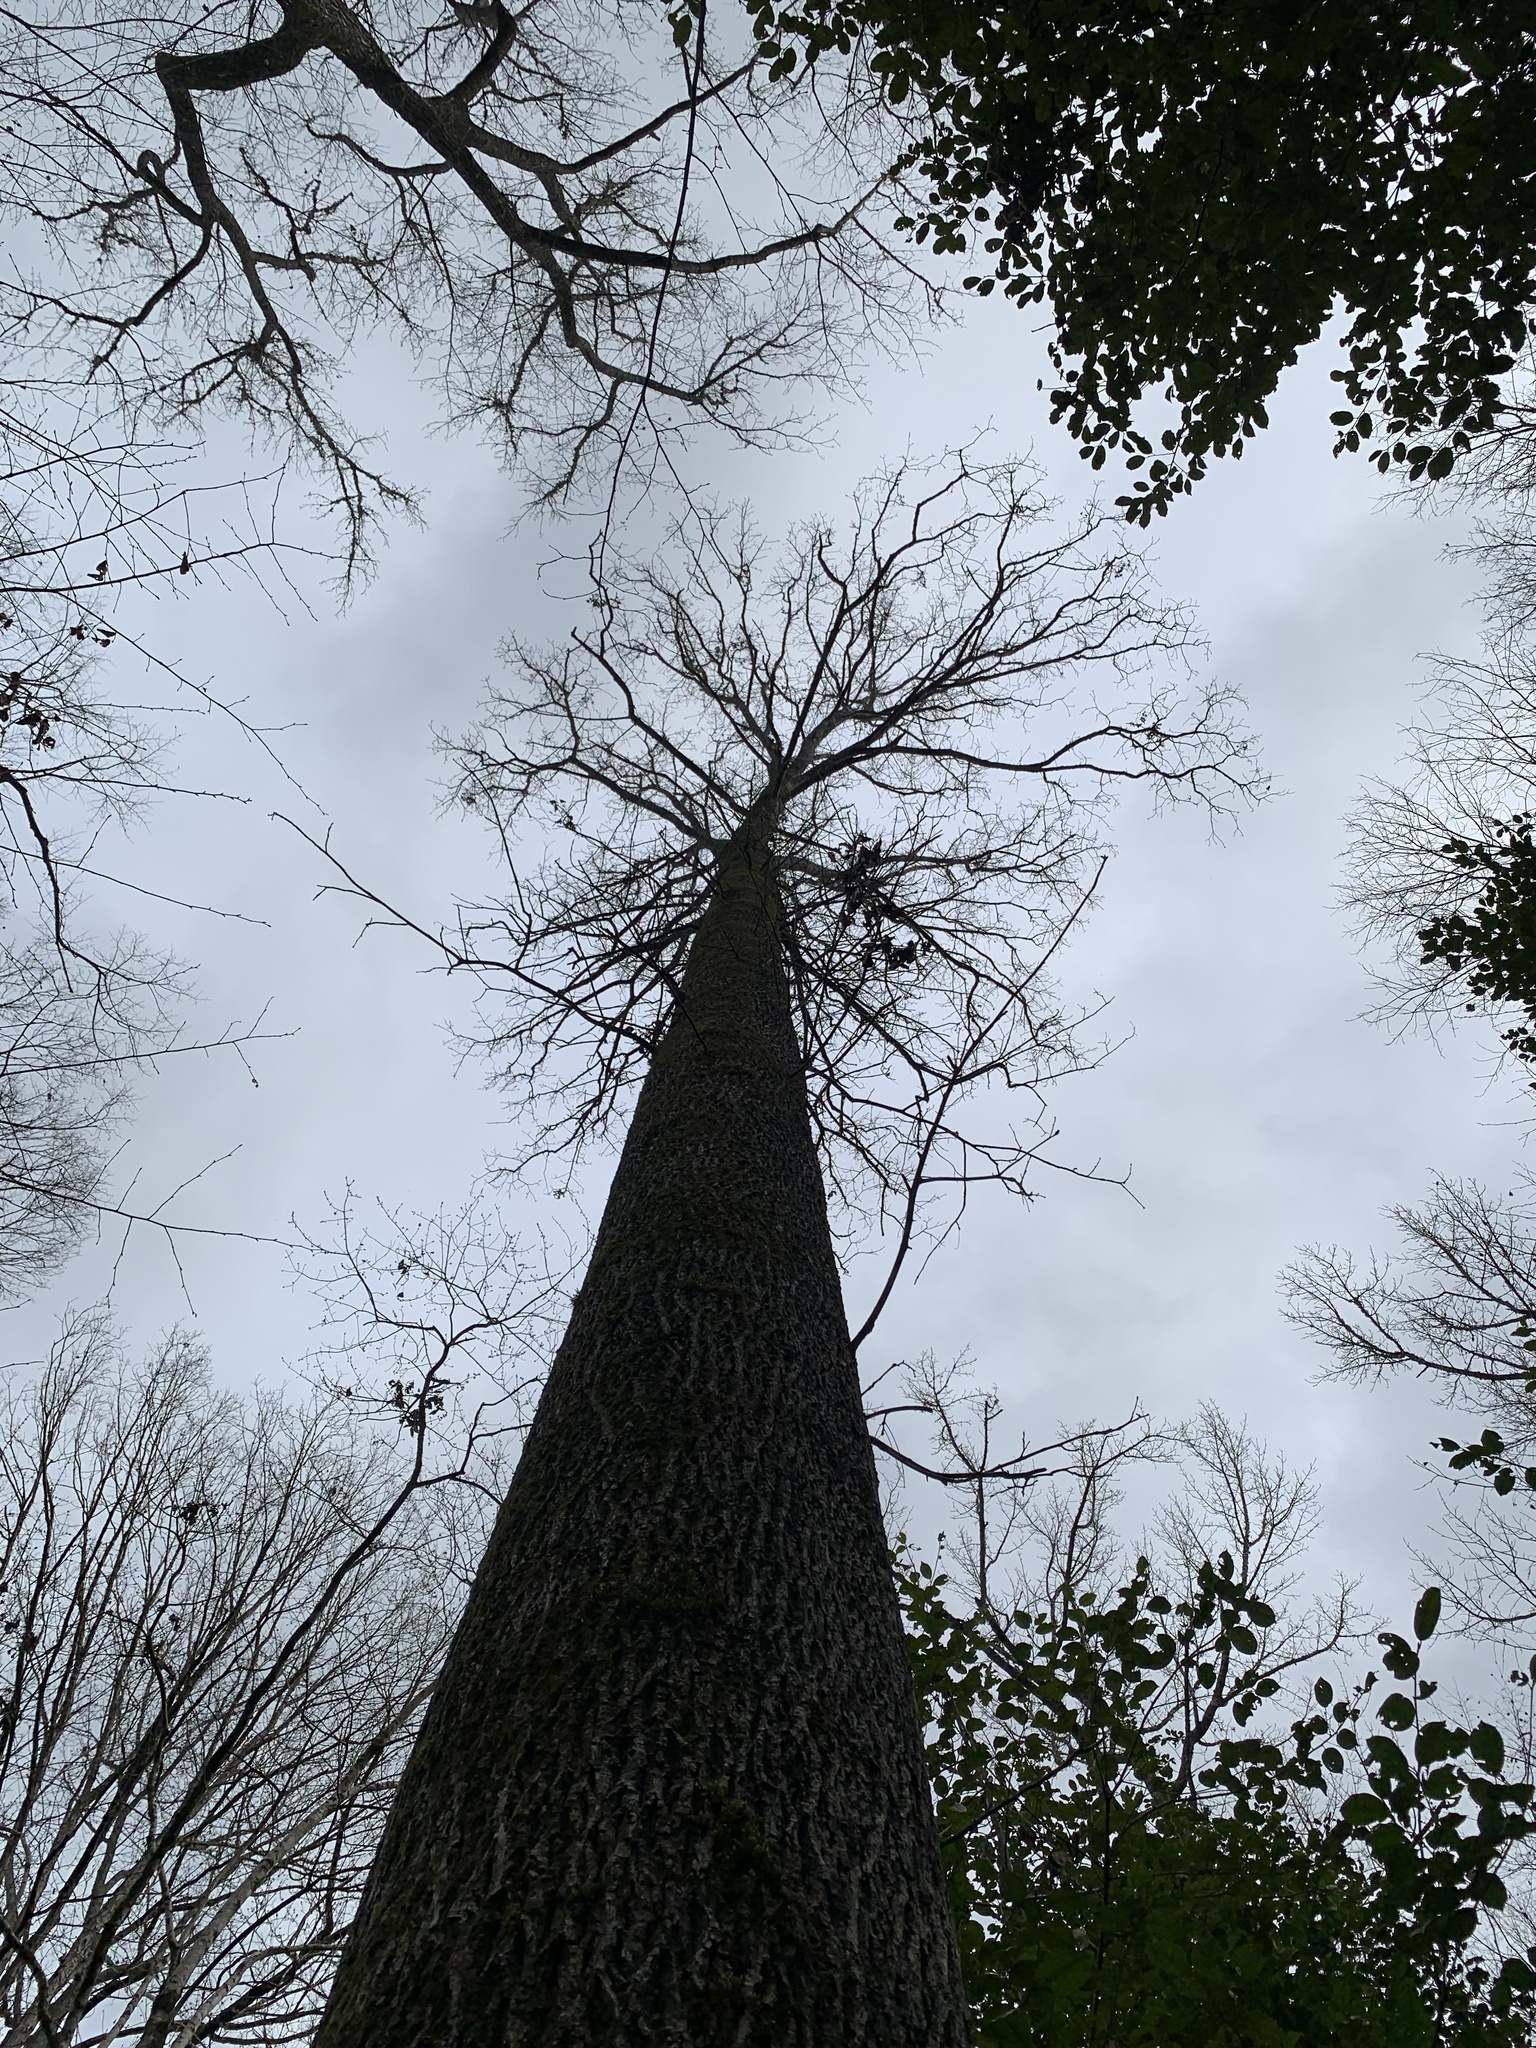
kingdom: Plantae
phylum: Tracheophyta
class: Magnoliopsida
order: Fagales
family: Juglandaceae
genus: Carya
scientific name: Carya glabra
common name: Pignut hickory
